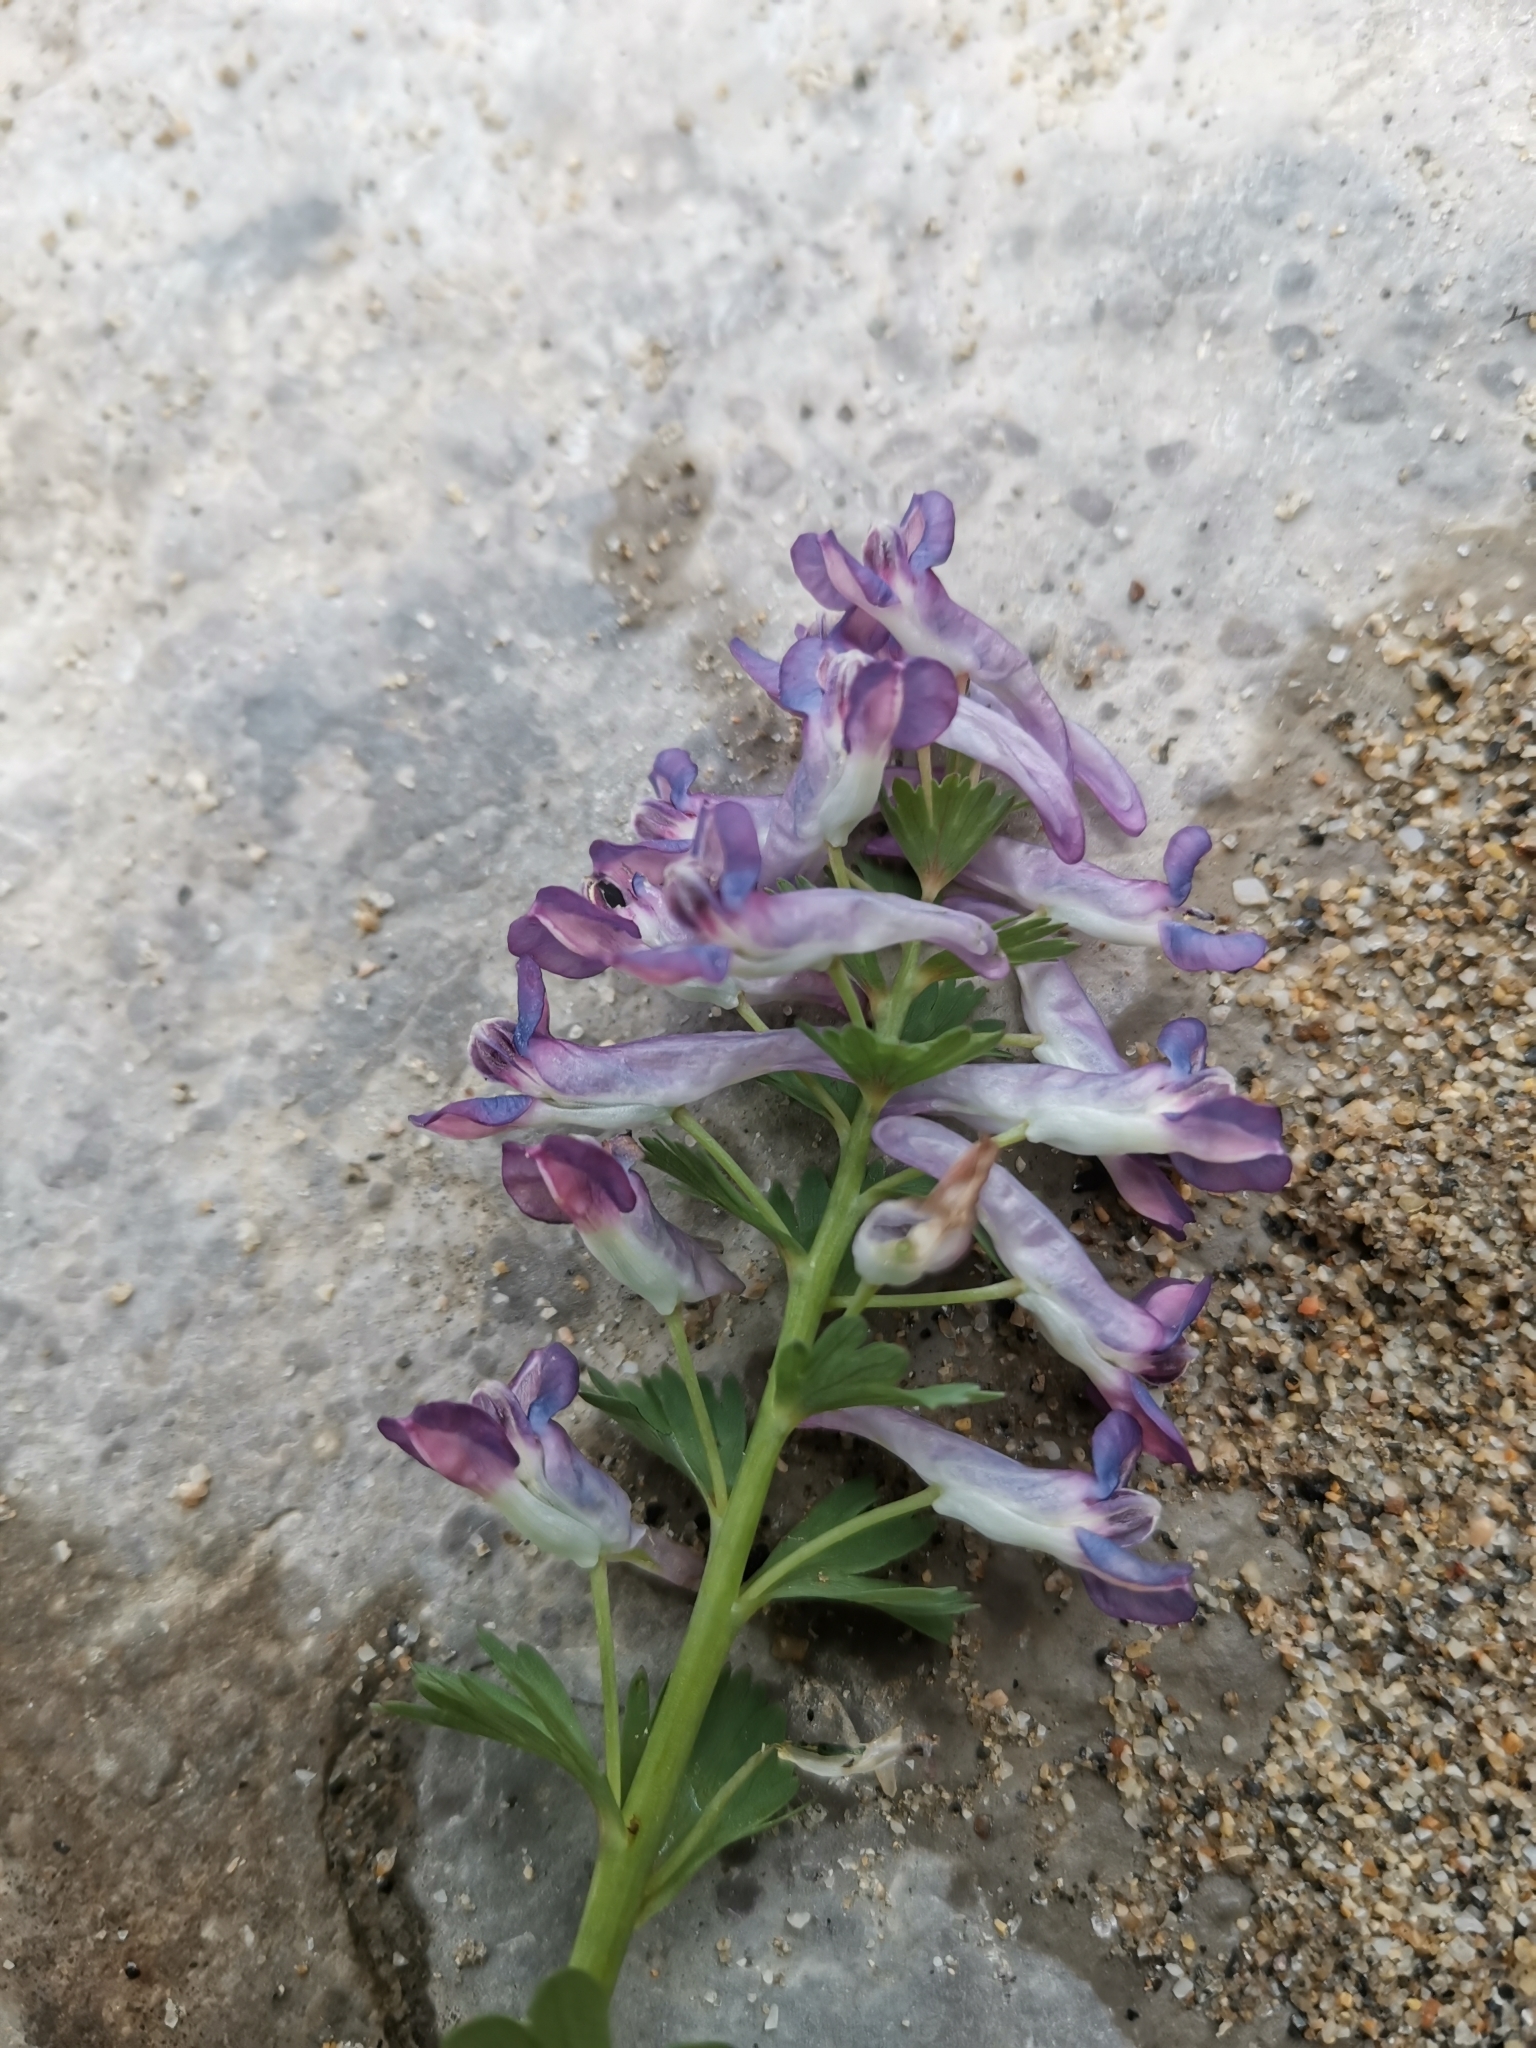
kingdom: Plantae
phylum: Tracheophyta
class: Magnoliopsida
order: Ranunculales
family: Papaveraceae
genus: Corydalis
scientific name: Corydalis solida
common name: Bird-in-a-bush
